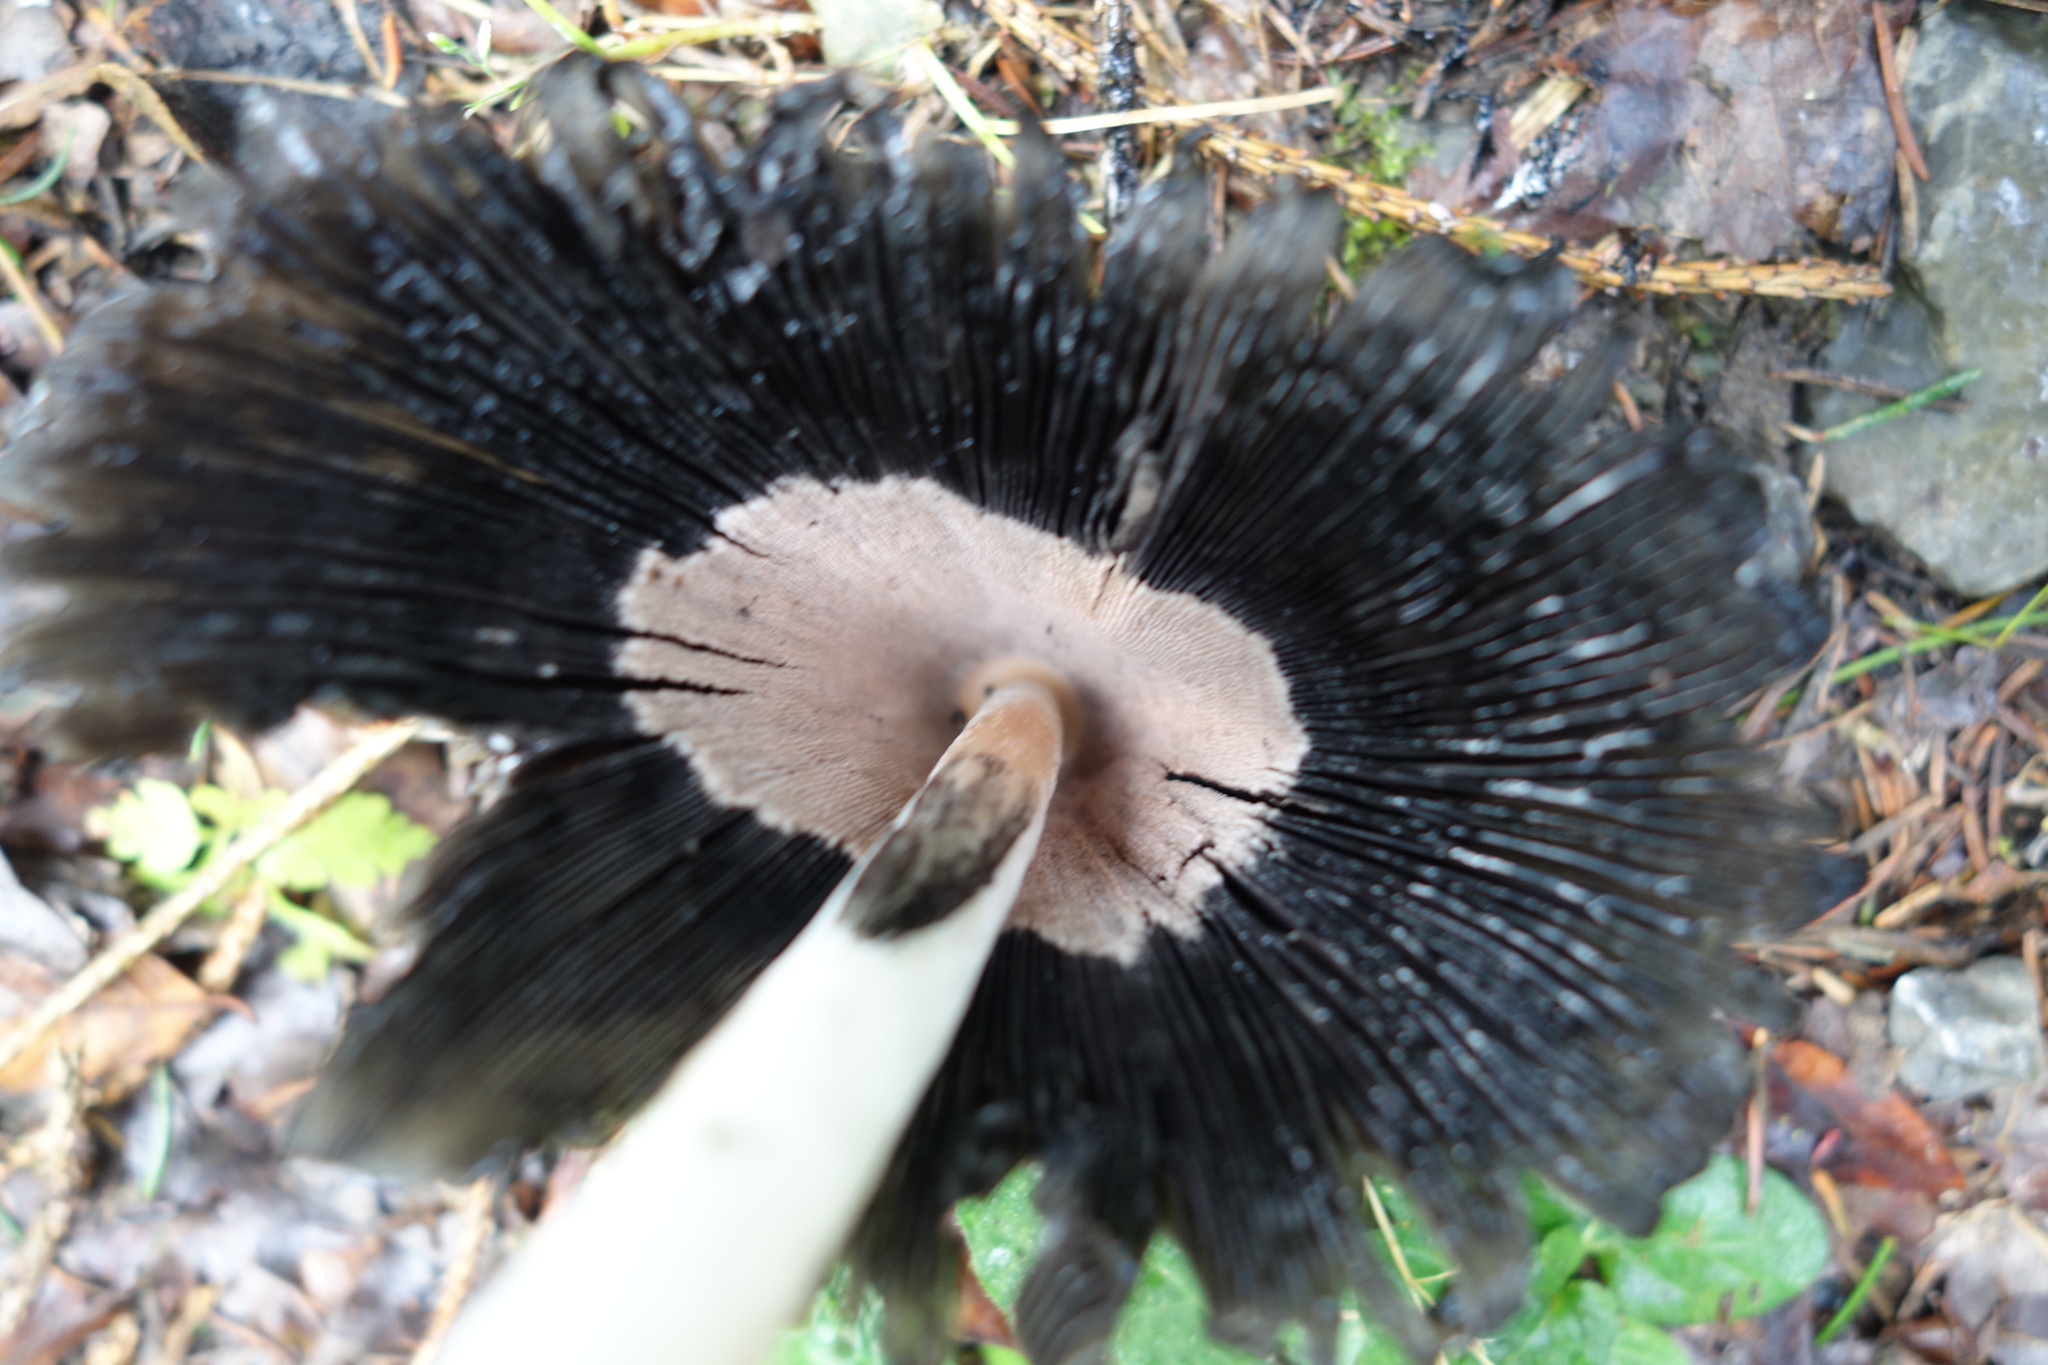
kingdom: Fungi
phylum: Basidiomycota
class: Agaricomycetes
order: Agaricales
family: Agaricaceae
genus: Coprinus
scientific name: Coprinus comatus
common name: Lawyer's wig
